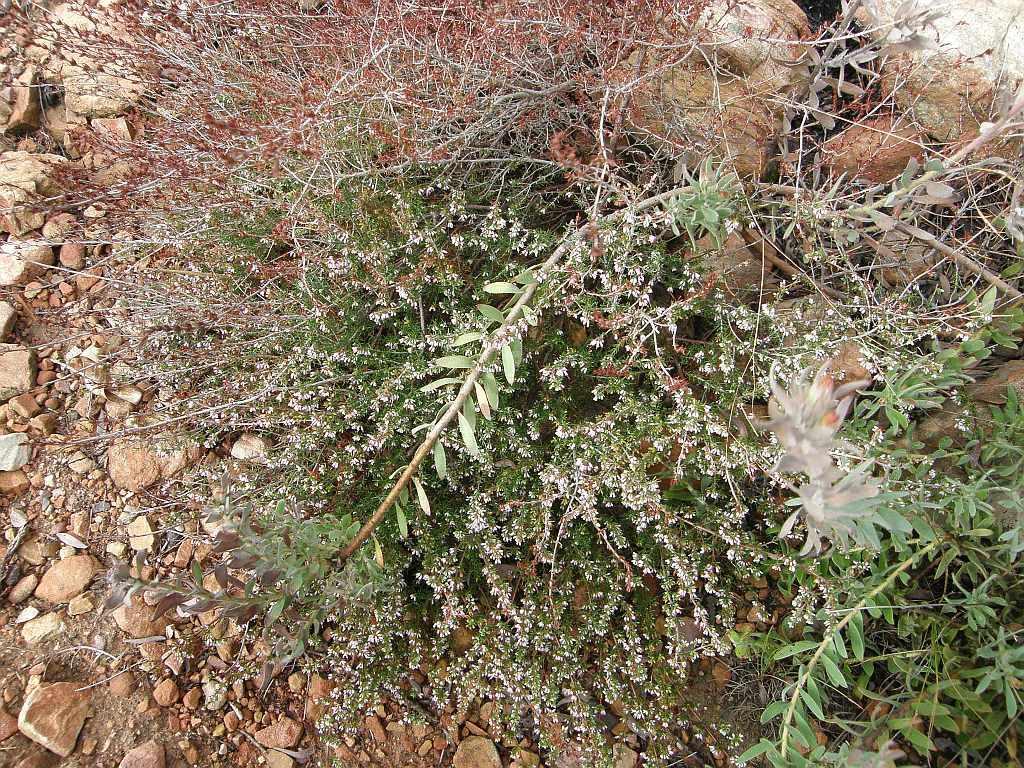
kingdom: Plantae
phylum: Tracheophyta
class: Magnoliopsida
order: Ericales
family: Ericaceae
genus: Erica
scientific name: Erica anguliger
